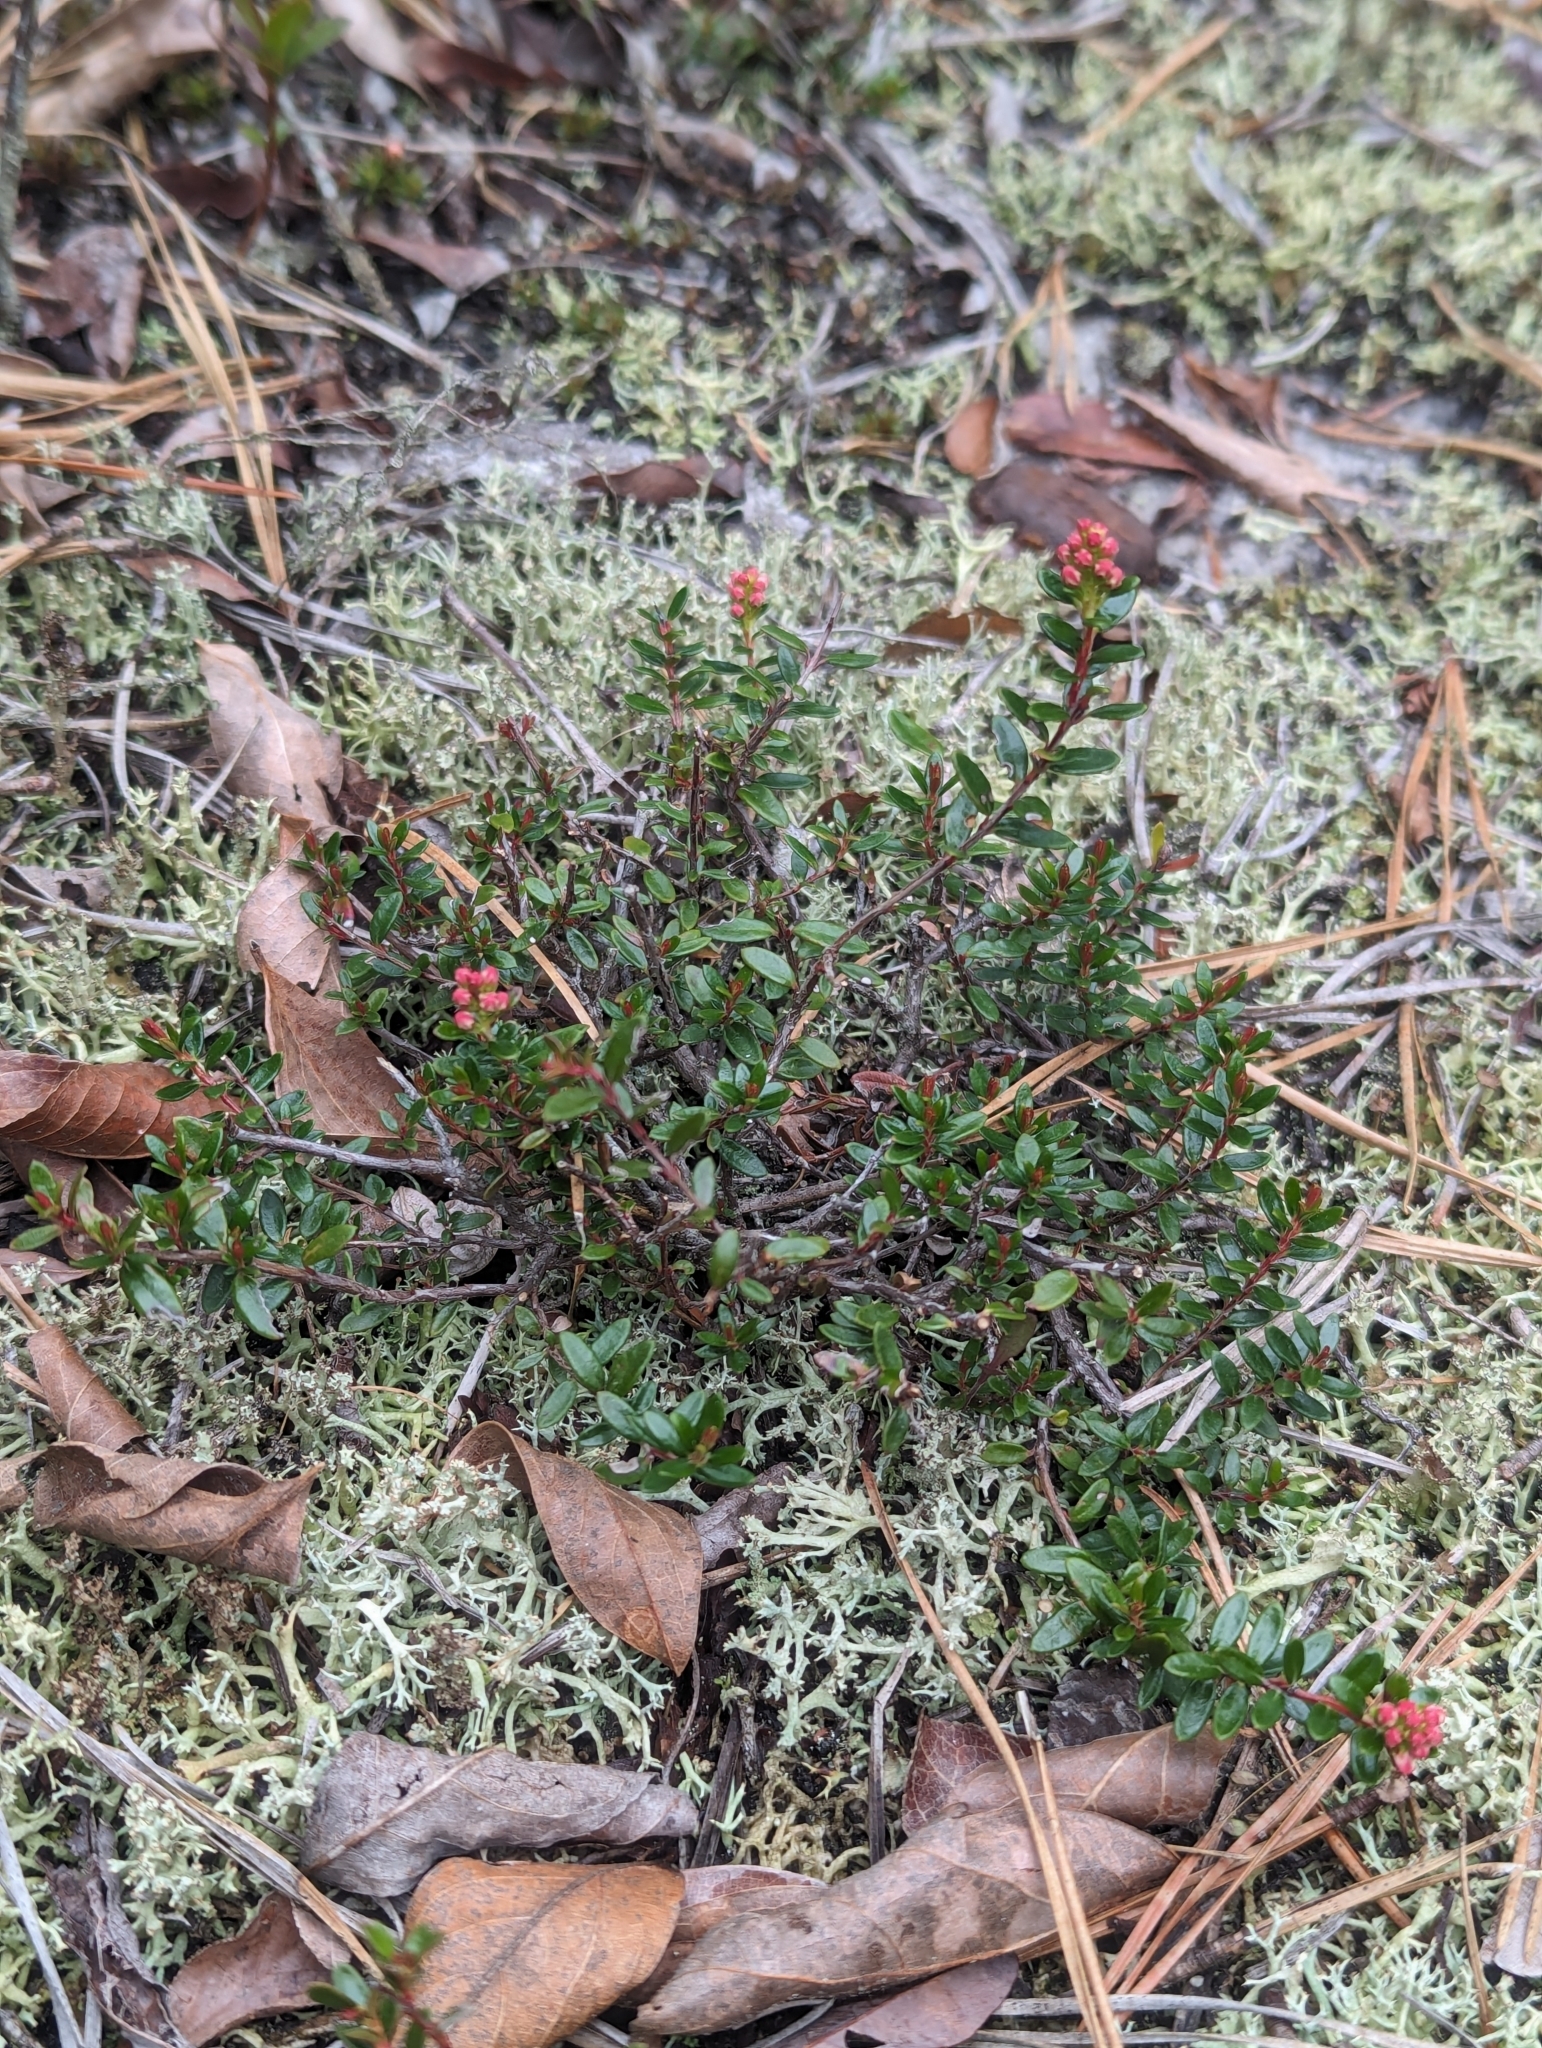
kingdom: Plantae
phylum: Tracheophyta
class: Magnoliopsida
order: Ericales
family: Ericaceae
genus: Kalmia
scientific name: Kalmia buxifolia
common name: Sandmyrtle
